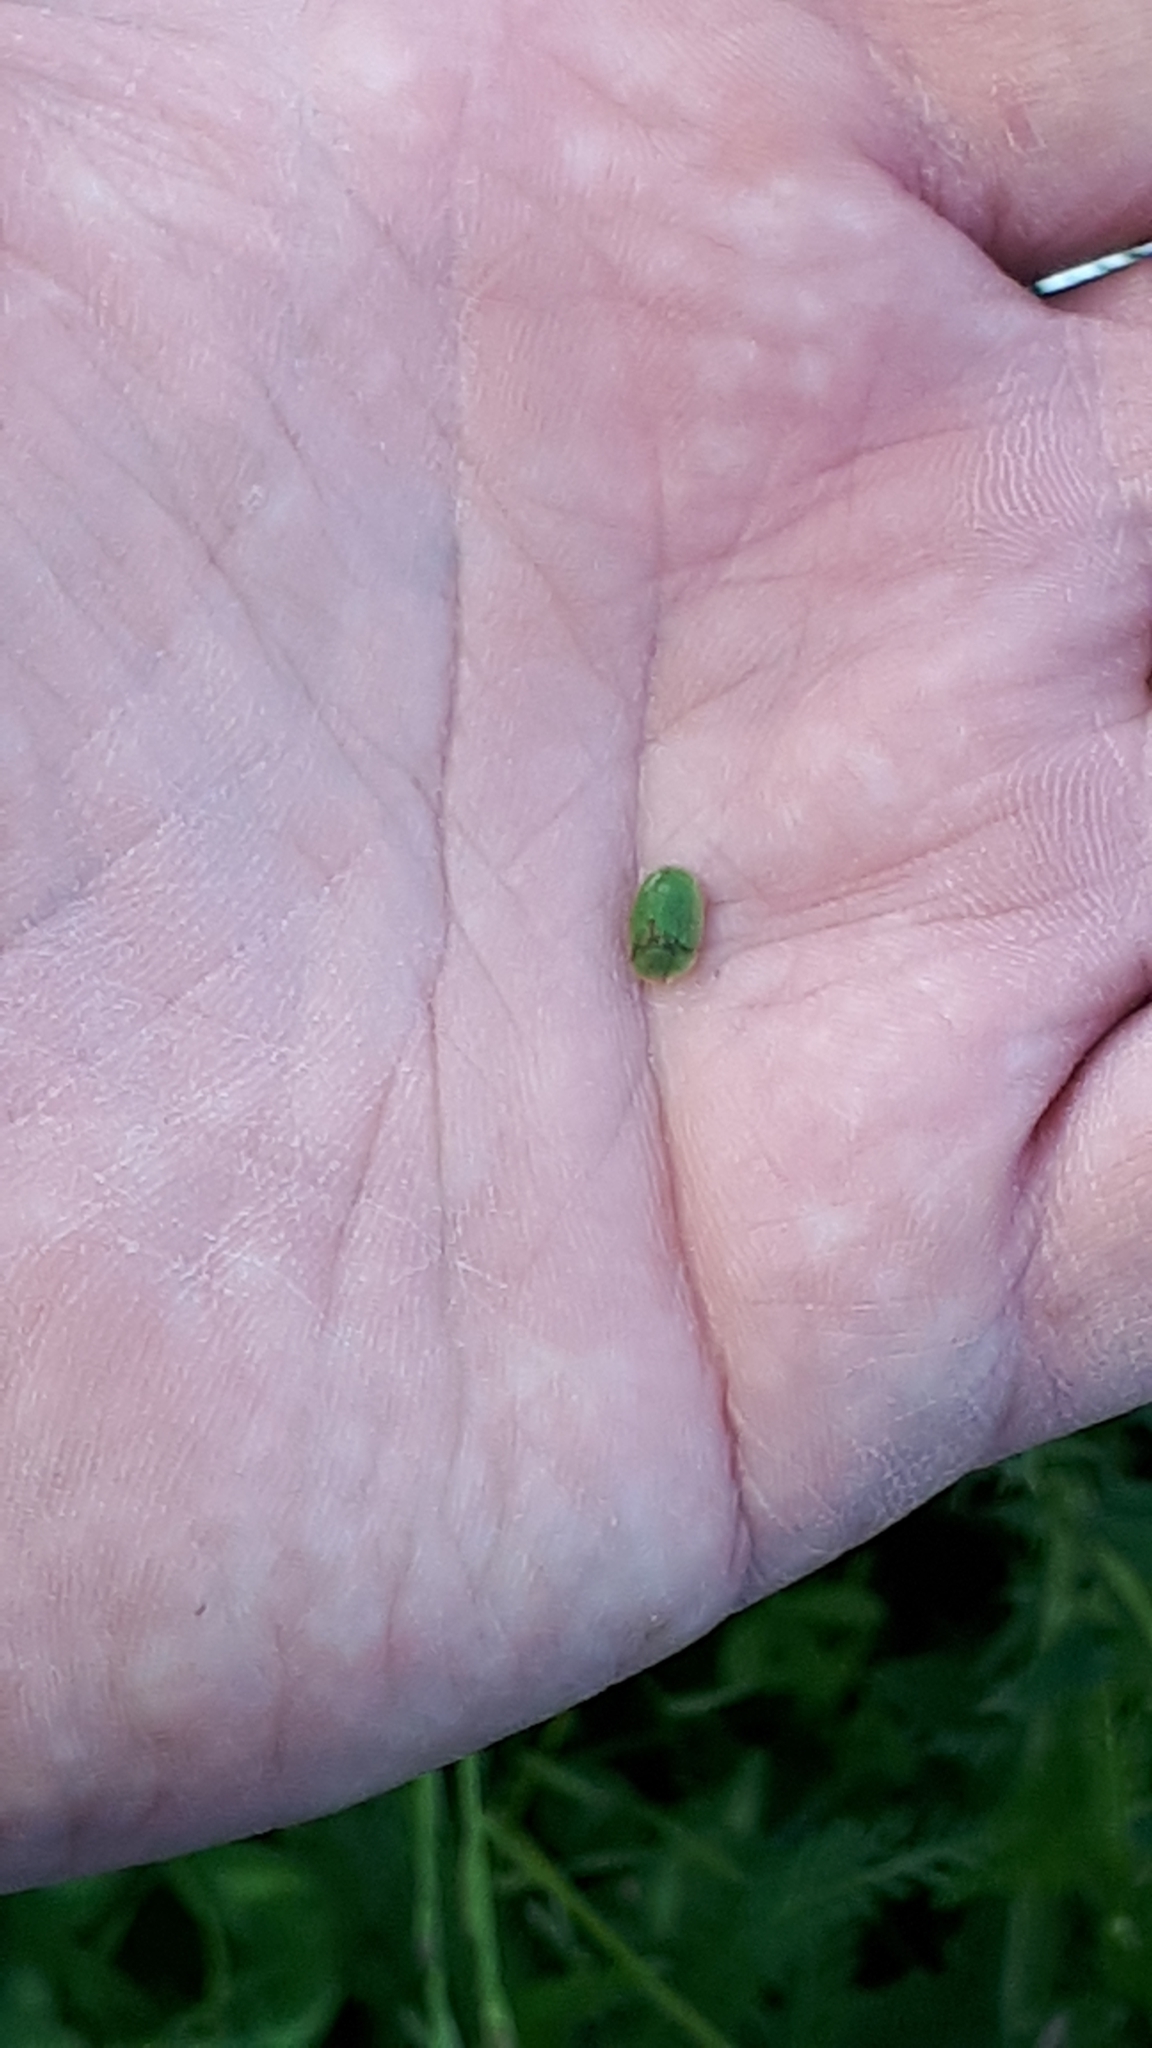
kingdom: Animalia
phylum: Arthropoda
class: Insecta
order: Coleoptera
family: Chrysomelidae
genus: Cassida
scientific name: Cassida rubiginosa
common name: Thistle tortoise beetle
